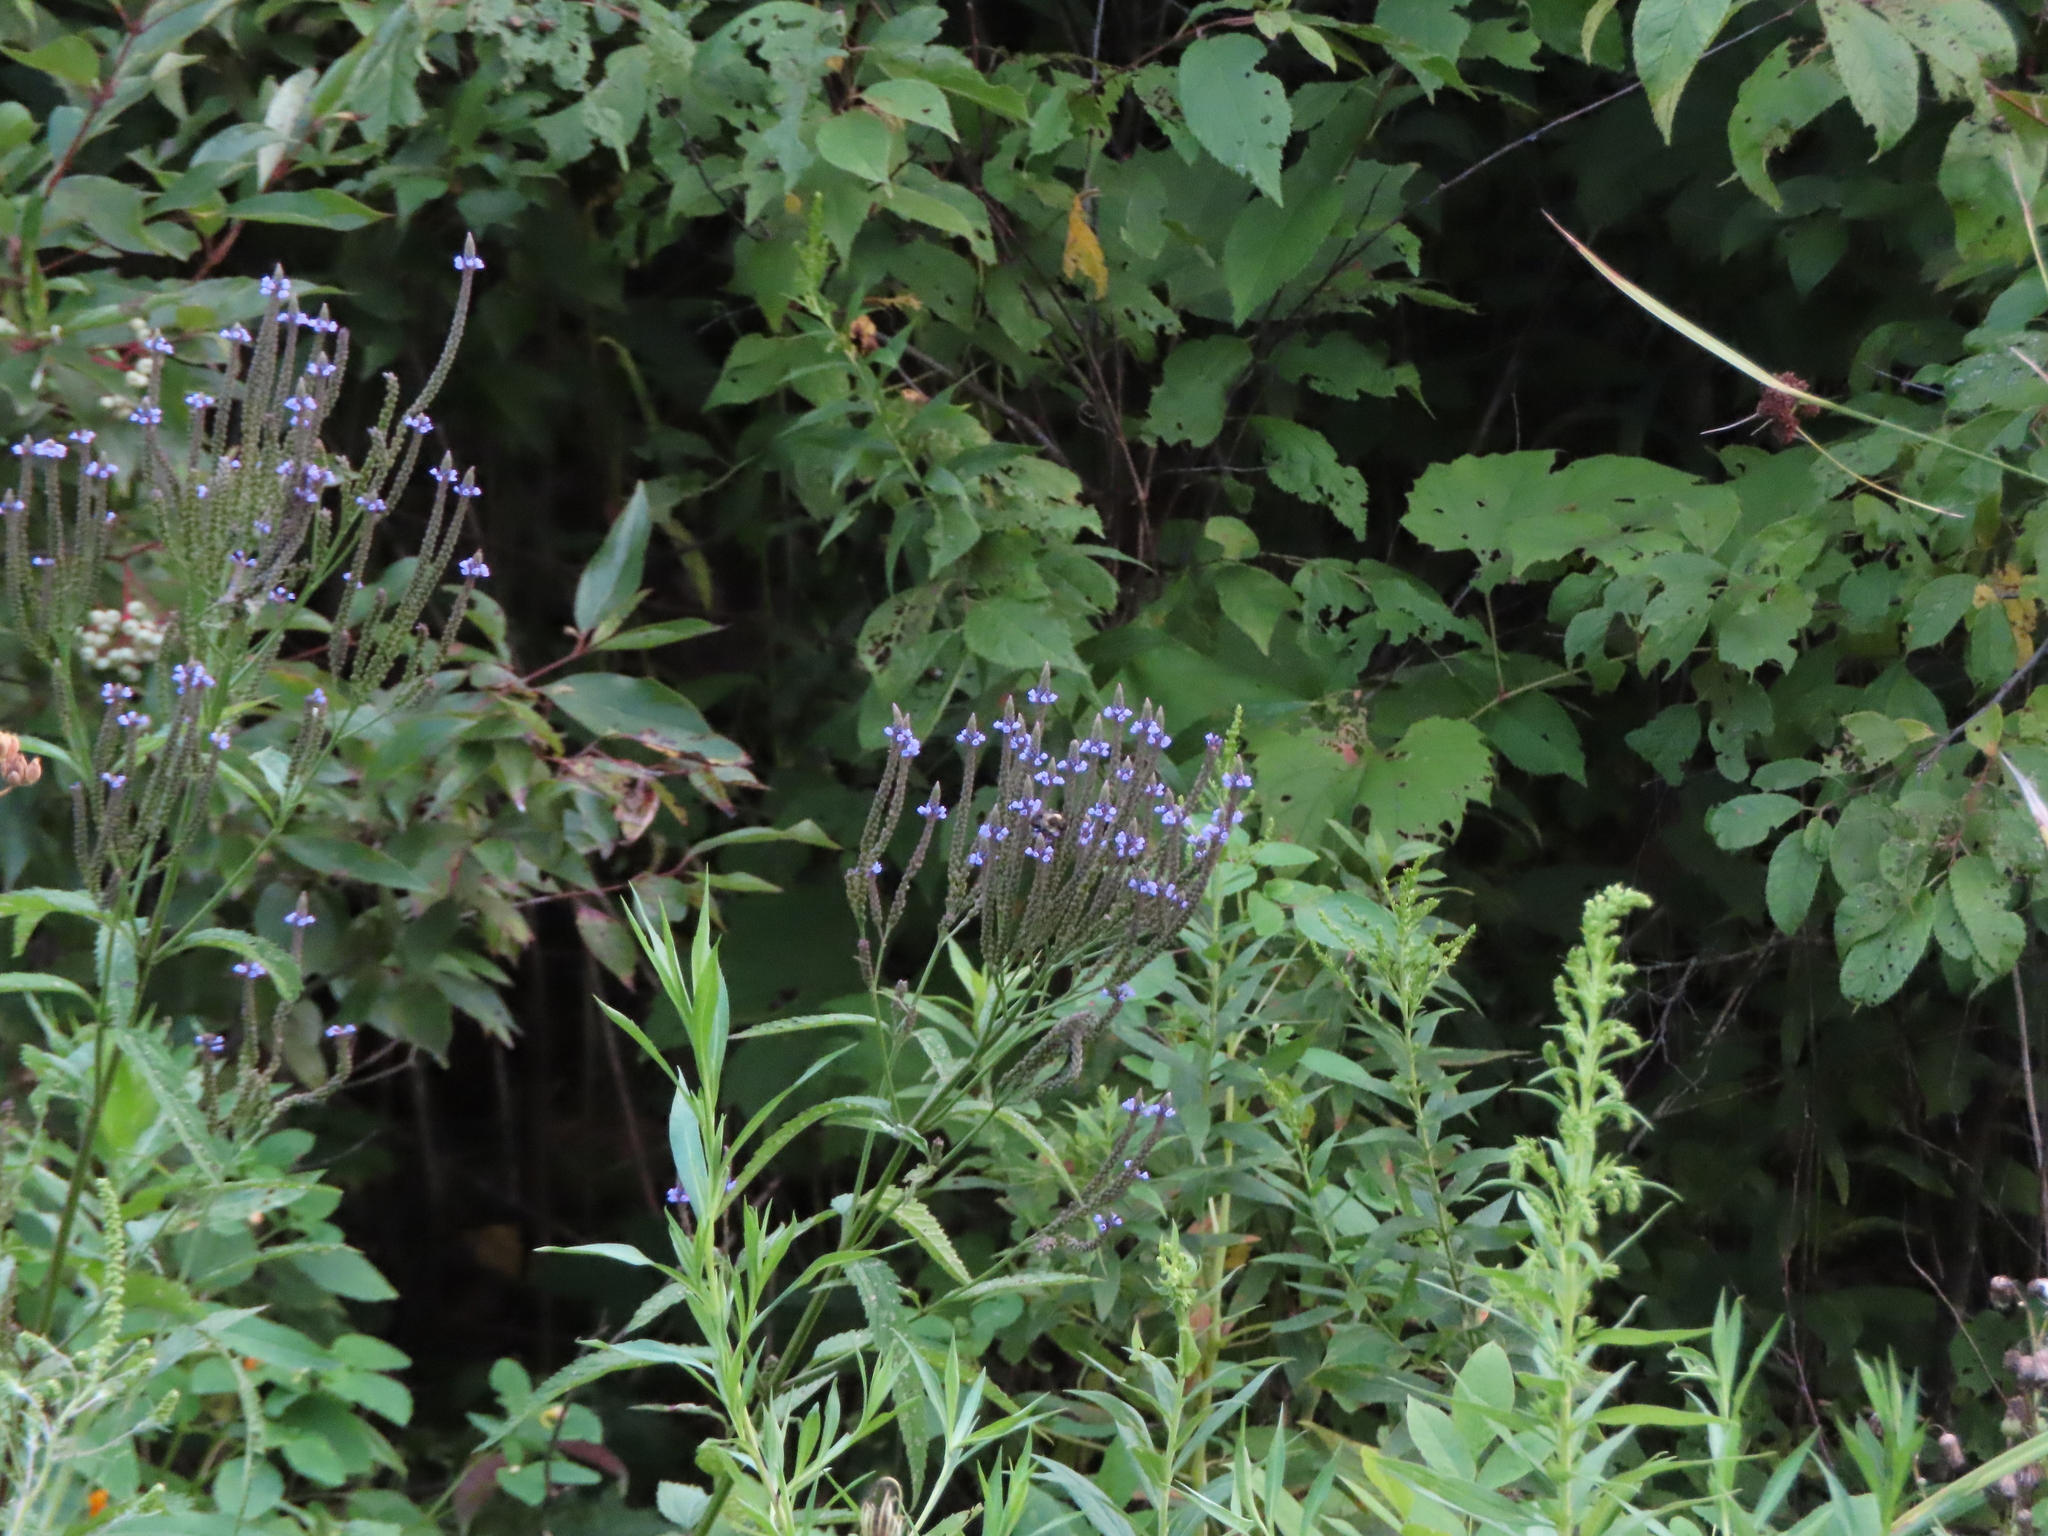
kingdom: Plantae
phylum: Tracheophyta
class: Magnoliopsida
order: Lamiales
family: Verbenaceae
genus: Verbena
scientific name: Verbena hastata
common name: American blue vervain
